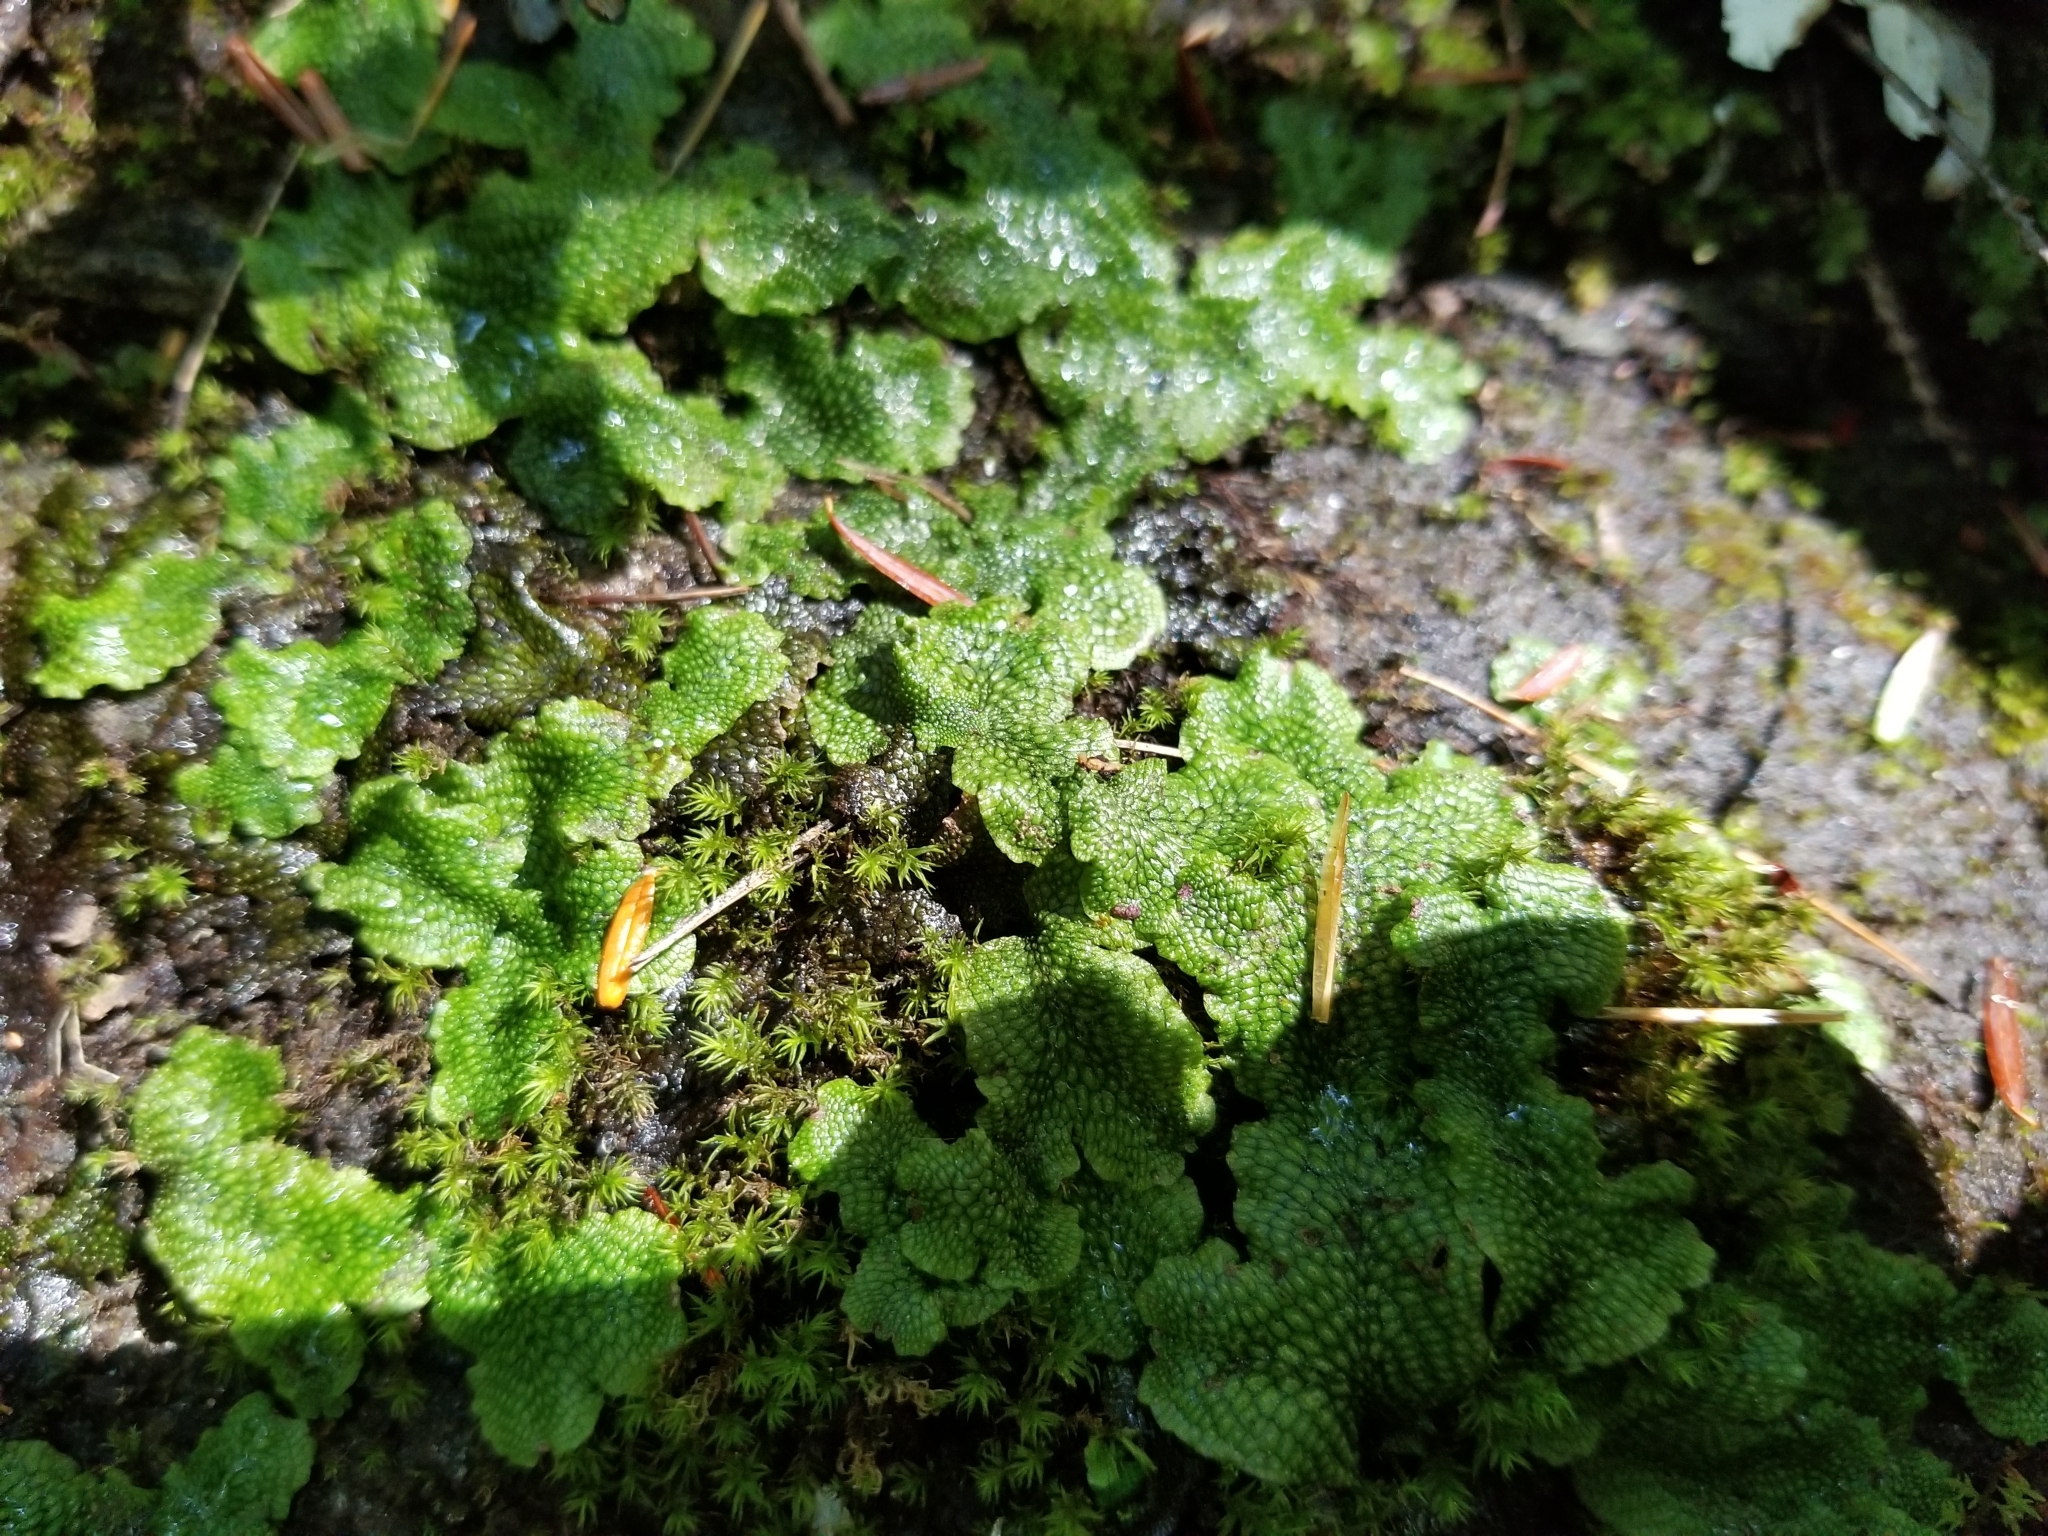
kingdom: Plantae
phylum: Marchantiophyta
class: Marchantiopsida
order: Marchantiales
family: Conocephalaceae
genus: Conocephalum
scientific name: Conocephalum salebrosum
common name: Cat-tongue liverwort
